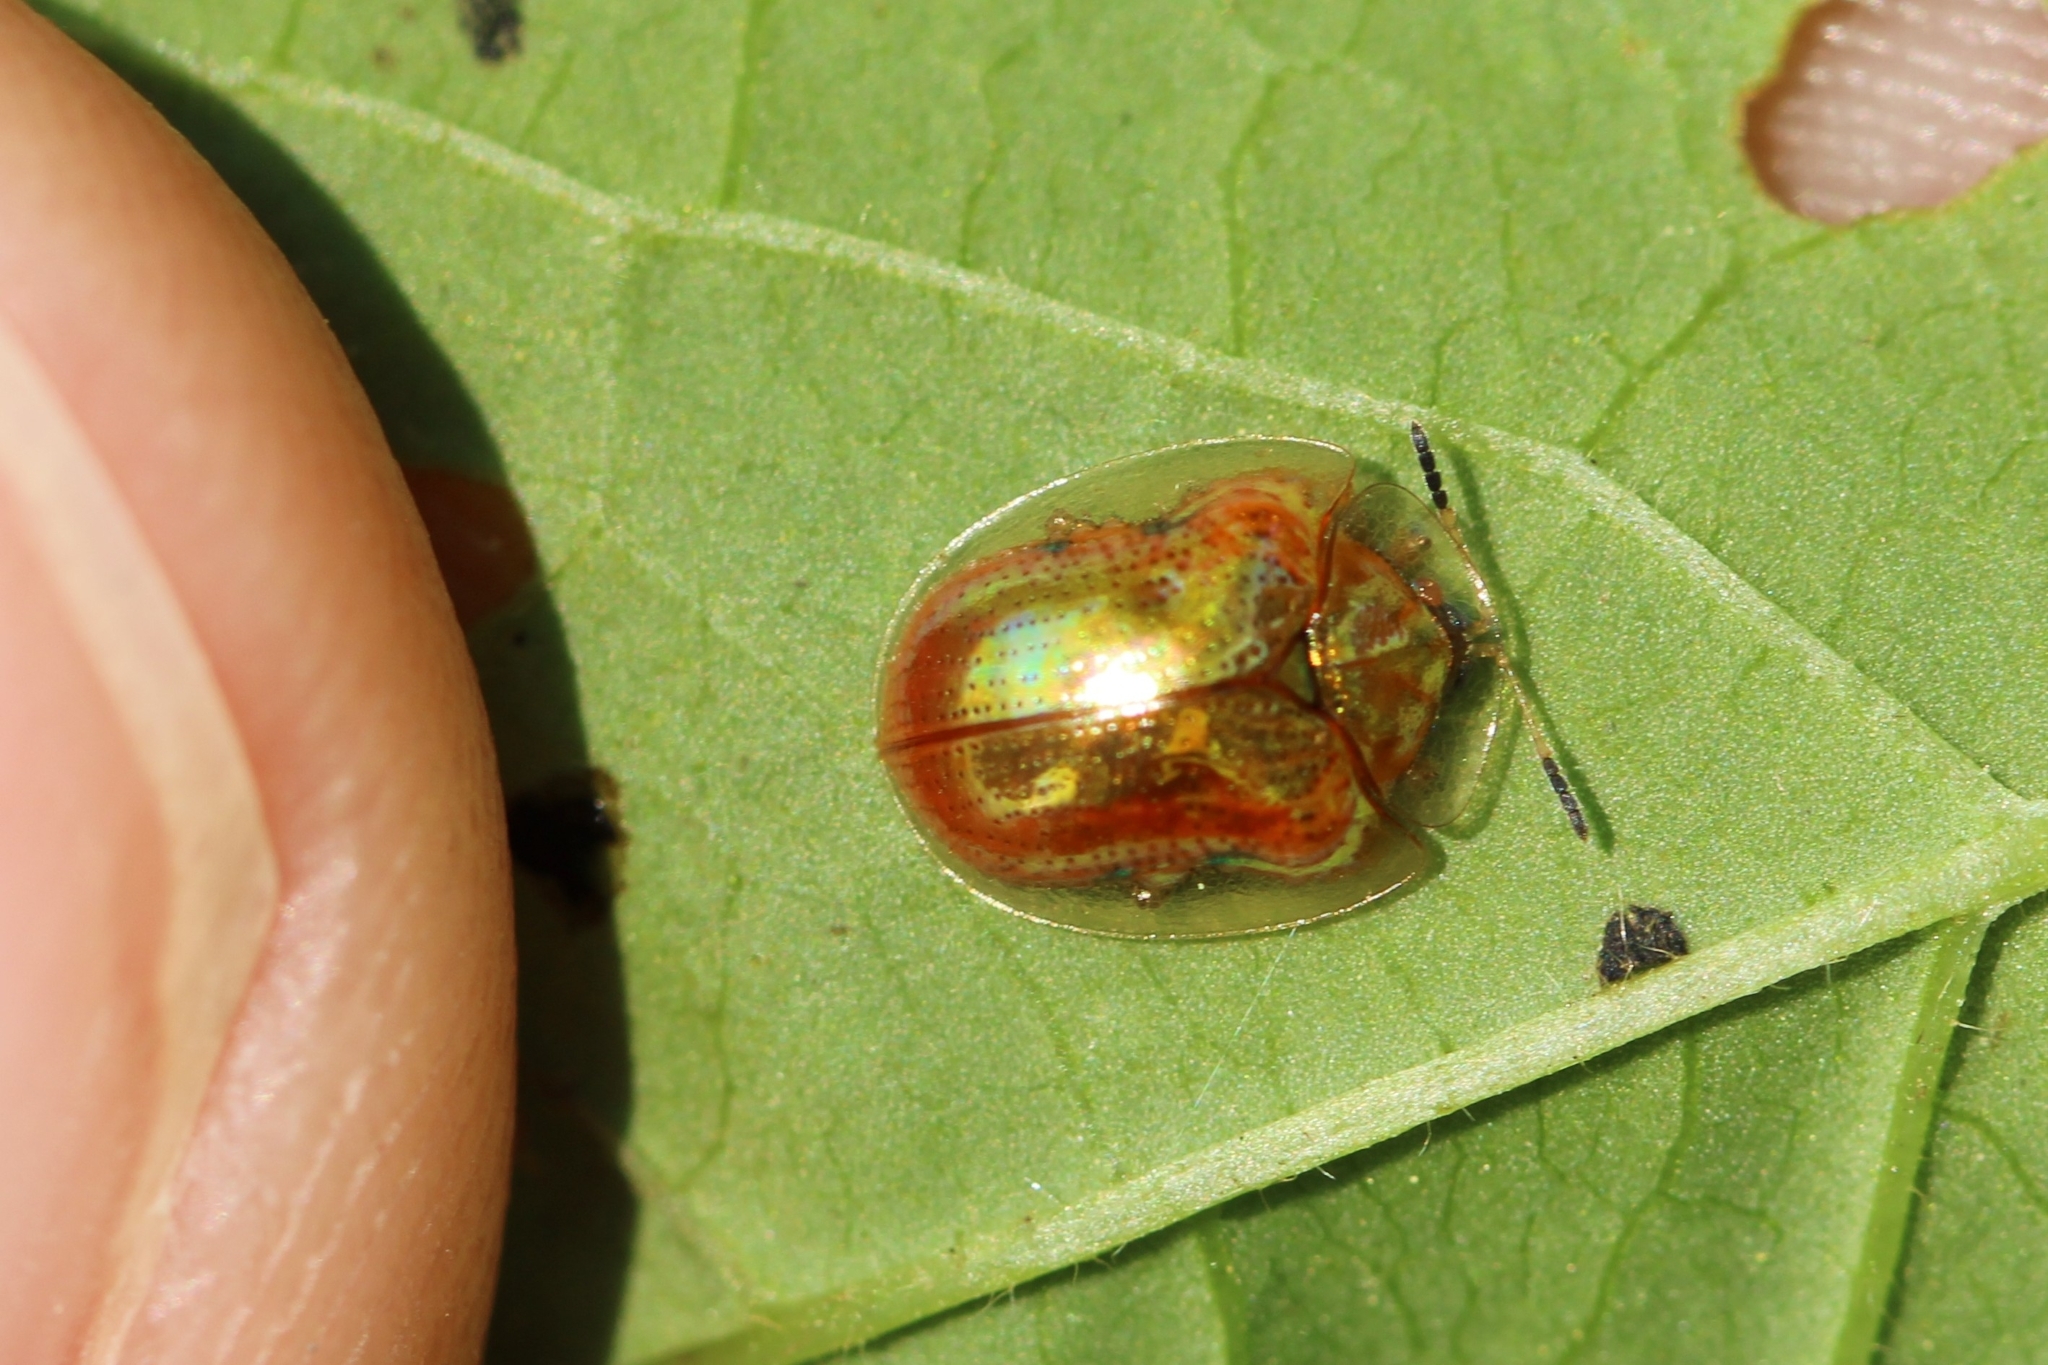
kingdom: Animalia
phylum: Arthropoda
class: Insecta
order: Coleoptera
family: Chrysomelidae
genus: Charidotella
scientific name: Charidotella sexpunctata
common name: Golden tortoise beetle
